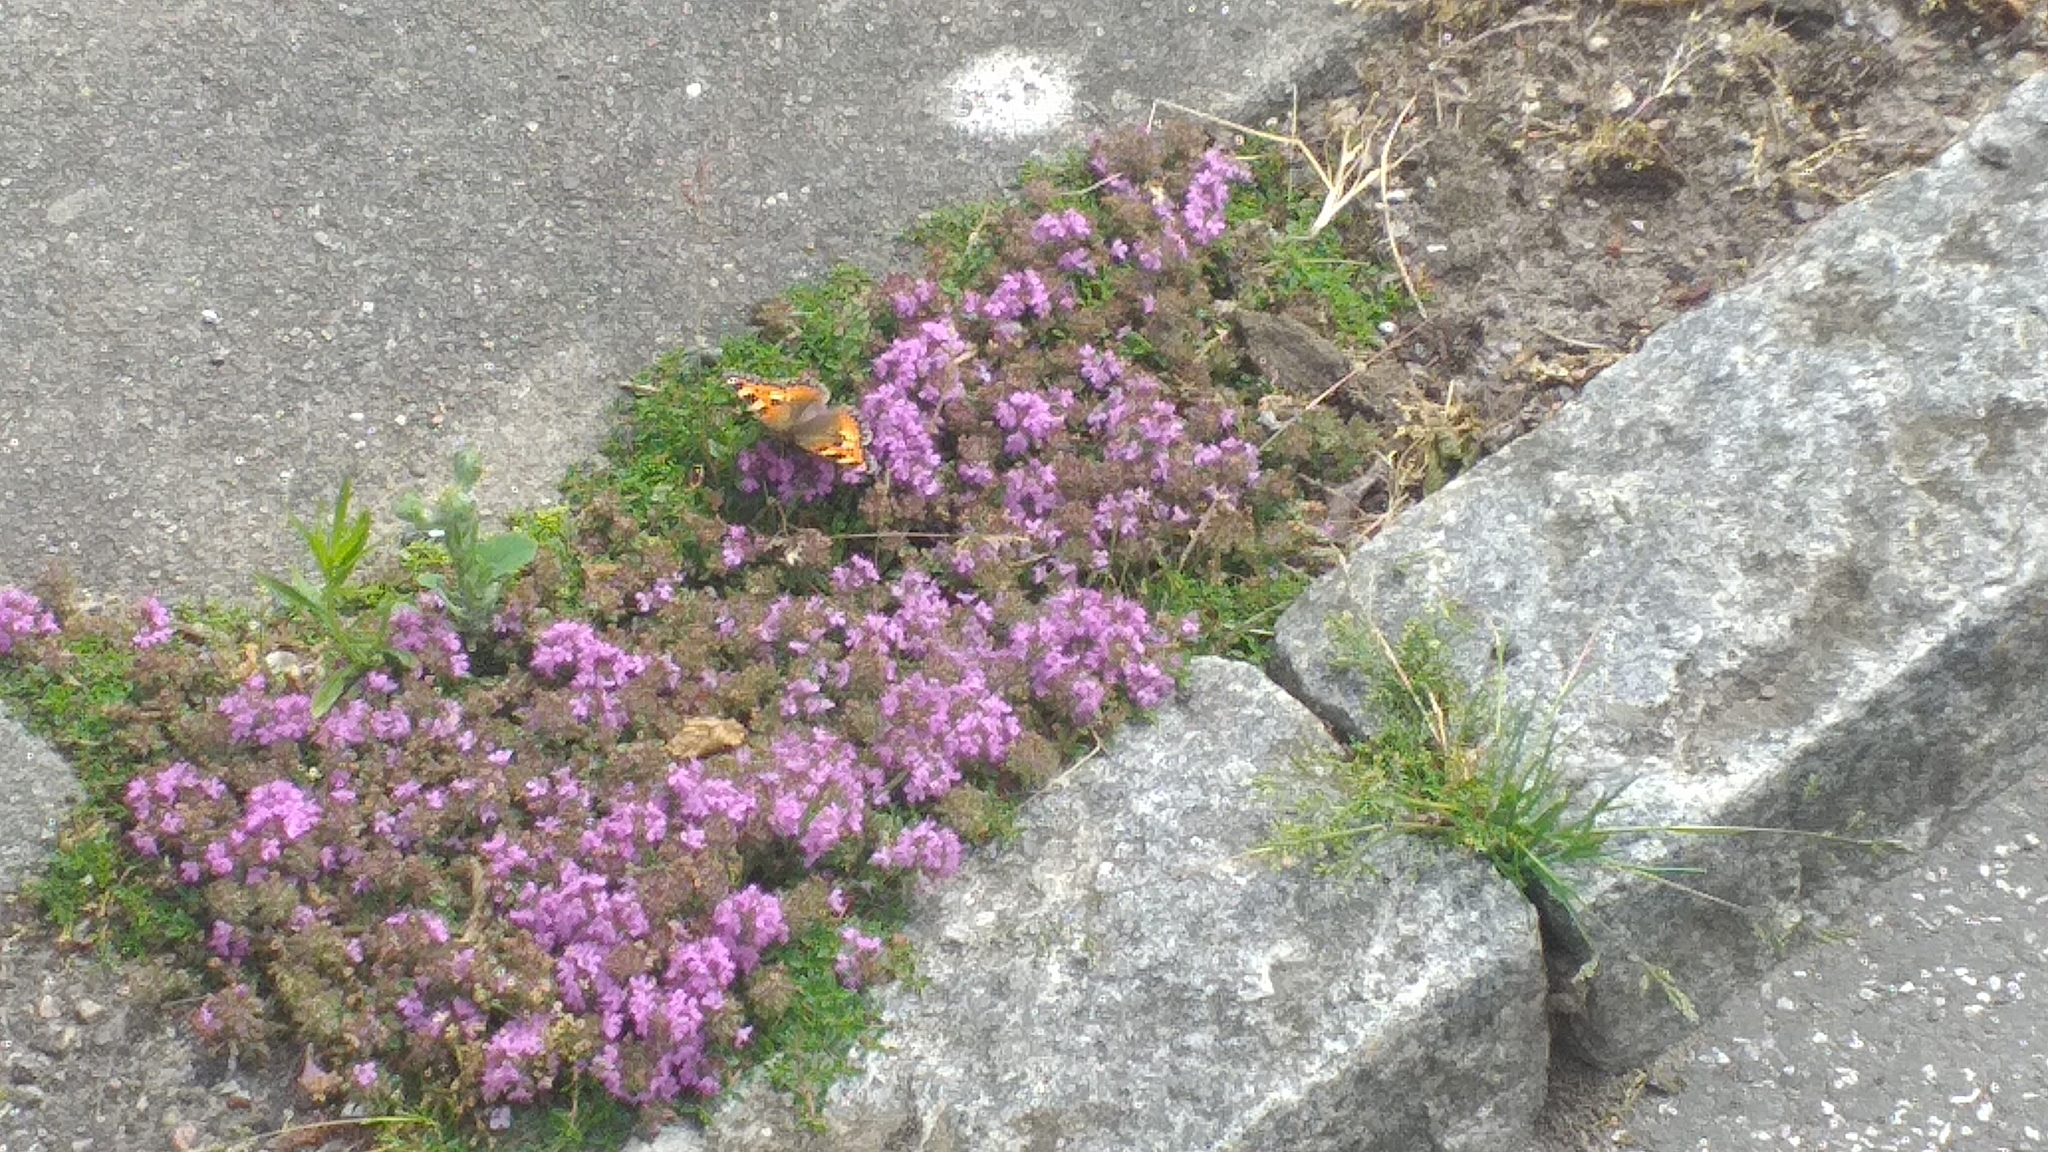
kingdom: Animalia
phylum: Arthropoda
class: Insecta
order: Lepidoptera
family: Nymphalidae
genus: Aglais
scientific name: Aglais urticae
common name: Small tortoiseshell
